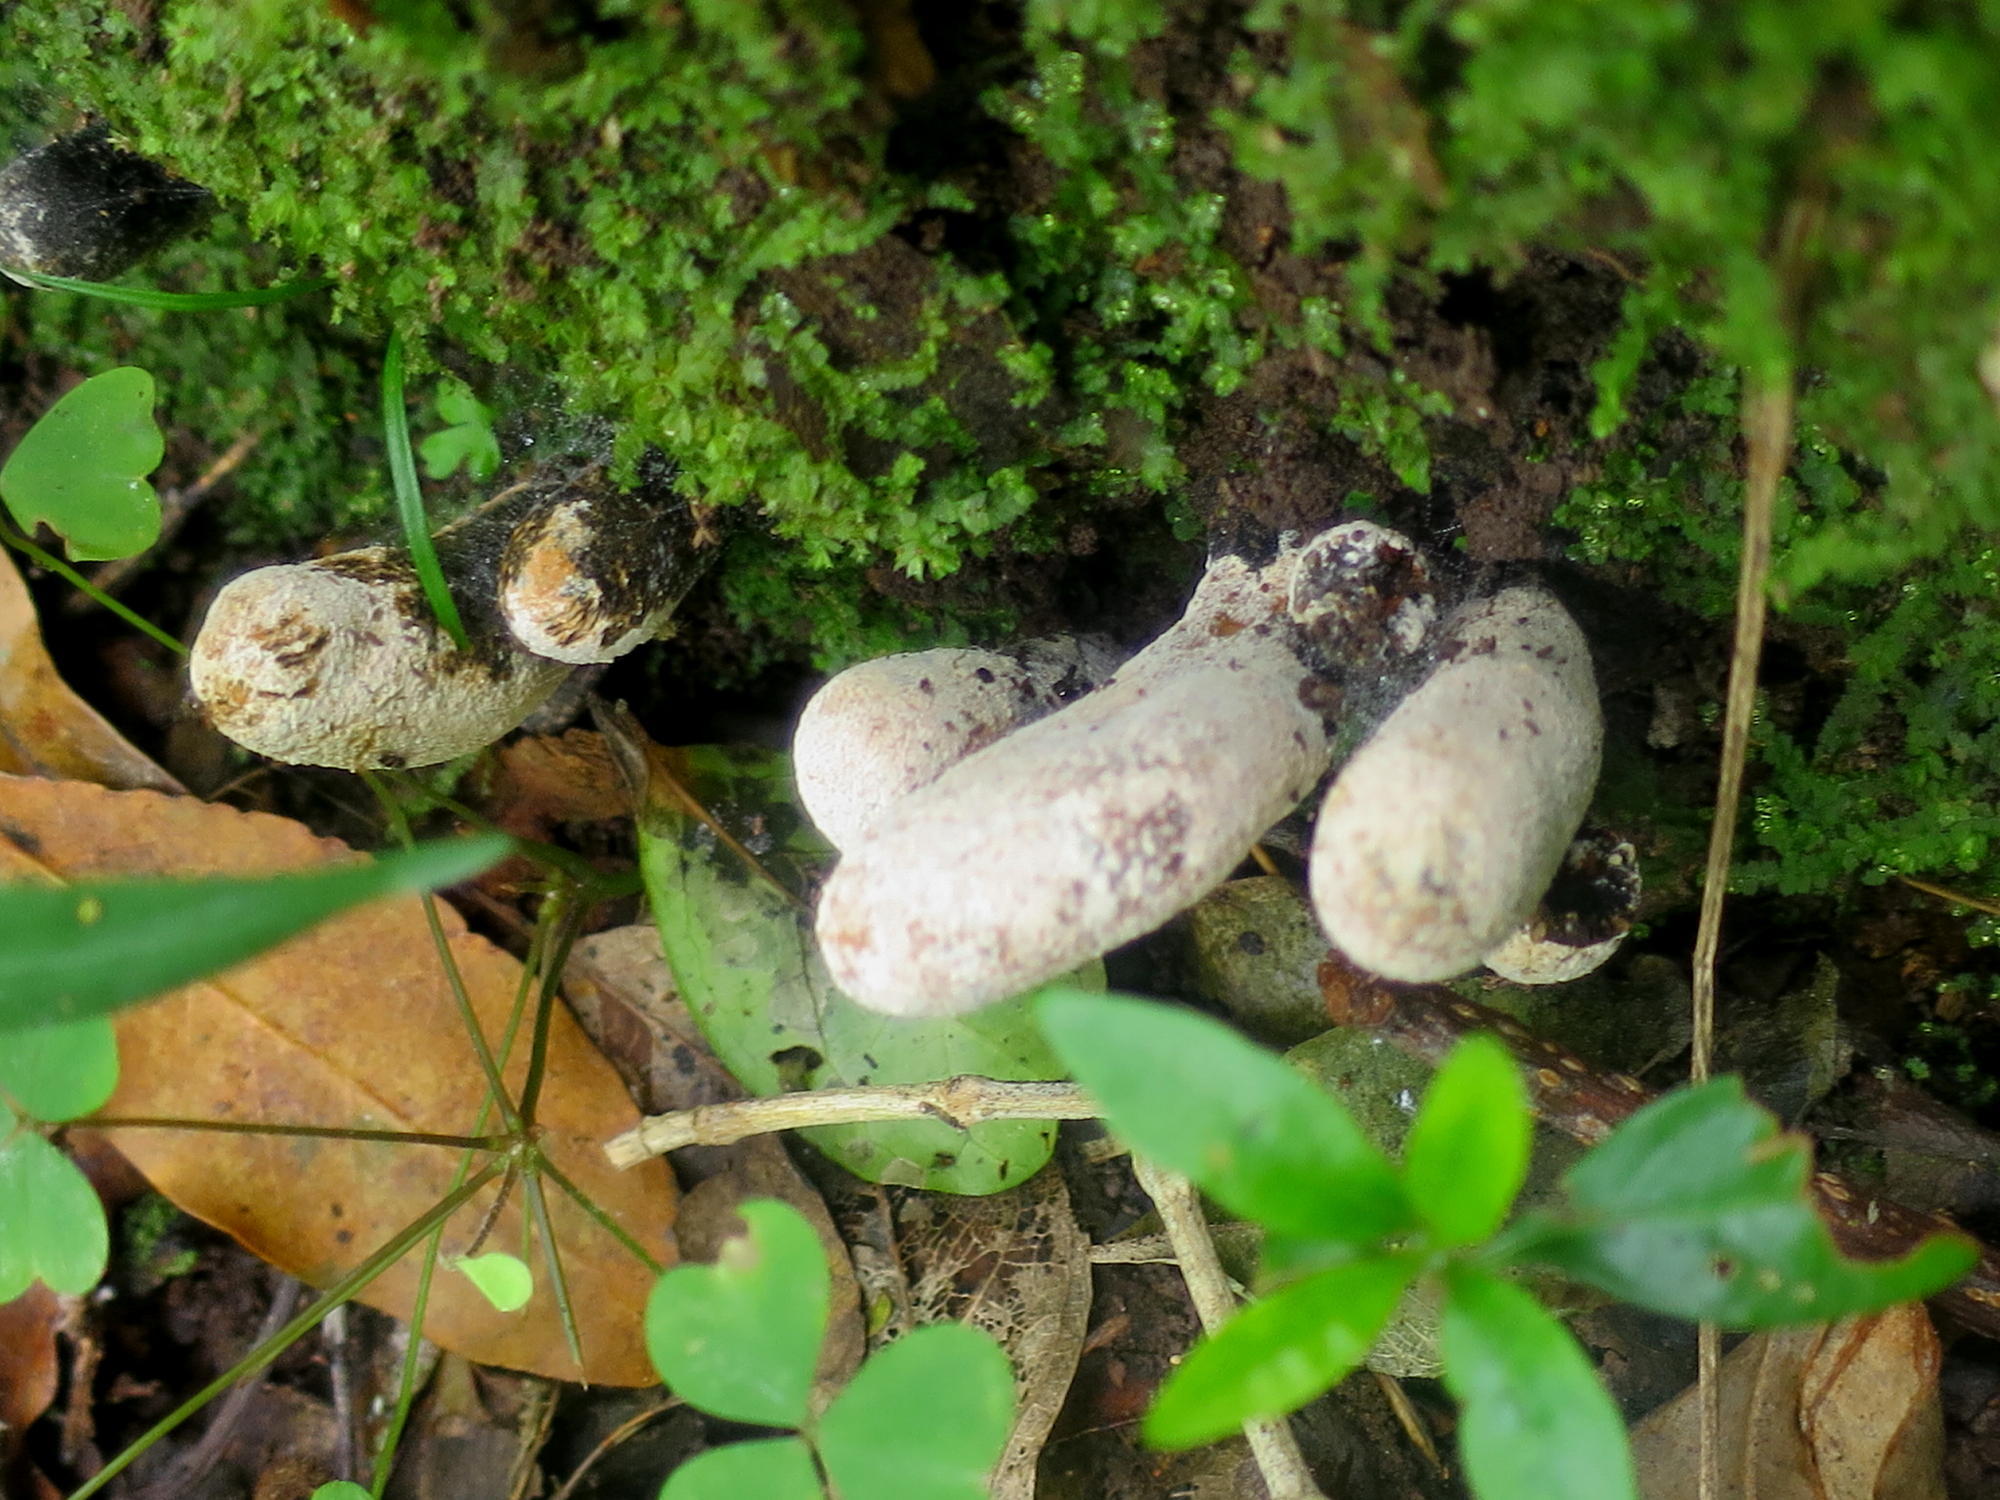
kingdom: Fungi
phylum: Ascomycota
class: Sordariomycetes
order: Xylariales
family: Xylariaceae
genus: Xylaria
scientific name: Xylaria polymorpha
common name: Dead man's fingers
